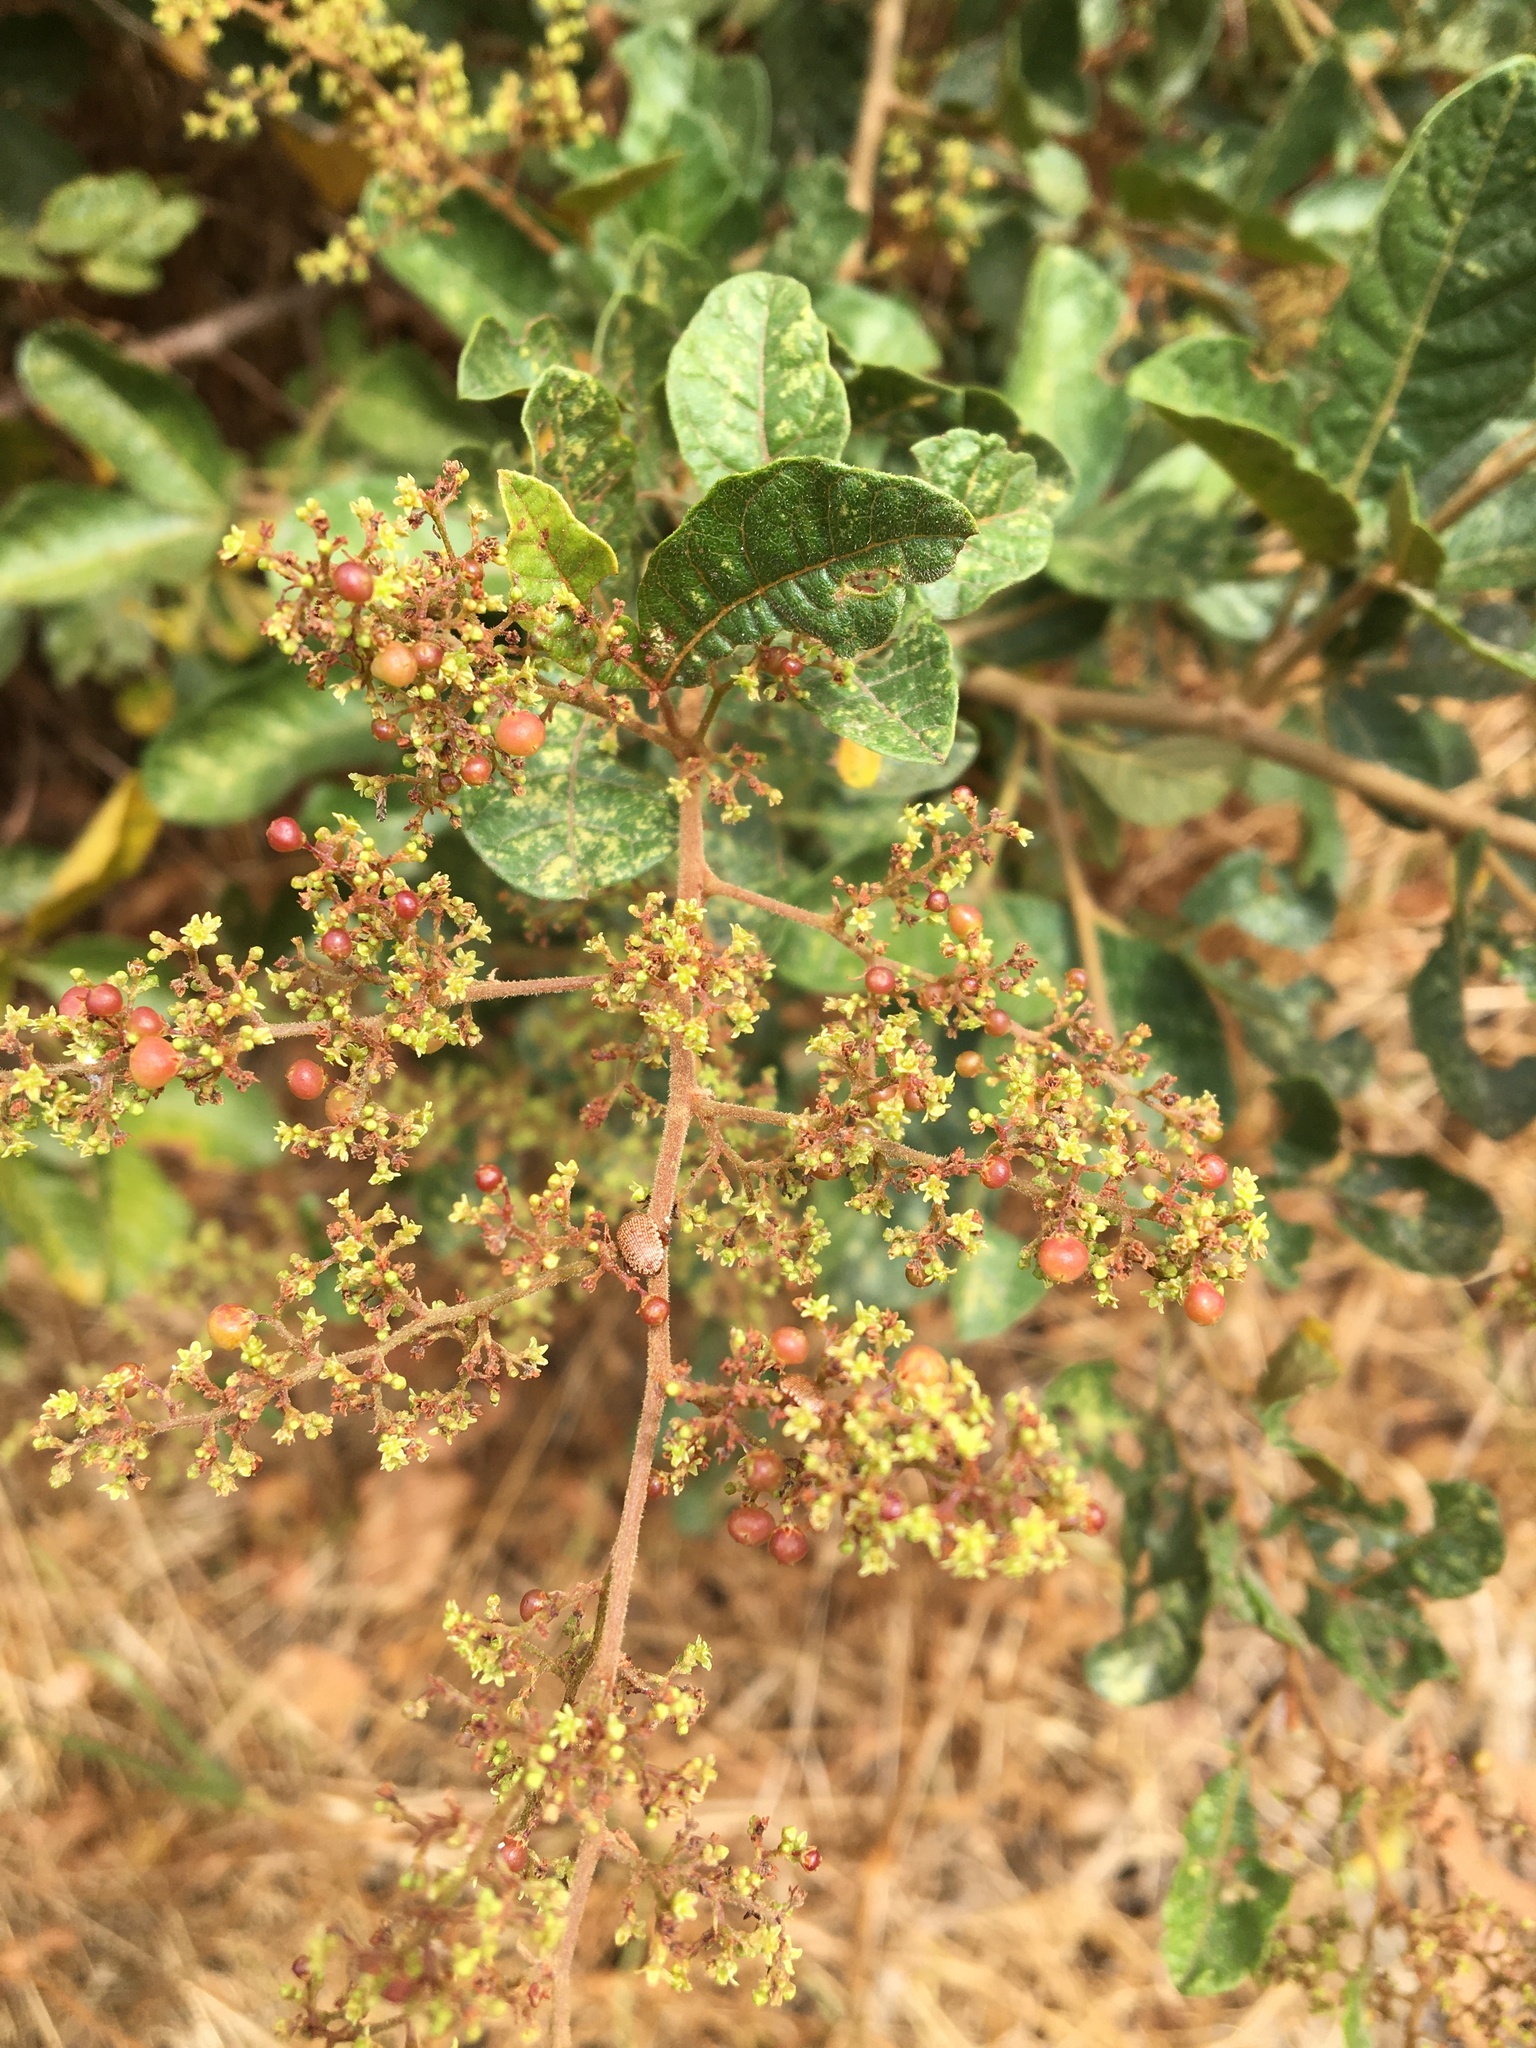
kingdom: Plantae
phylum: Tracheophyta
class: Magnoliopsida
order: Sapindales
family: Anacardiaceae
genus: Searsia
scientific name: Searsia rehmanniana
